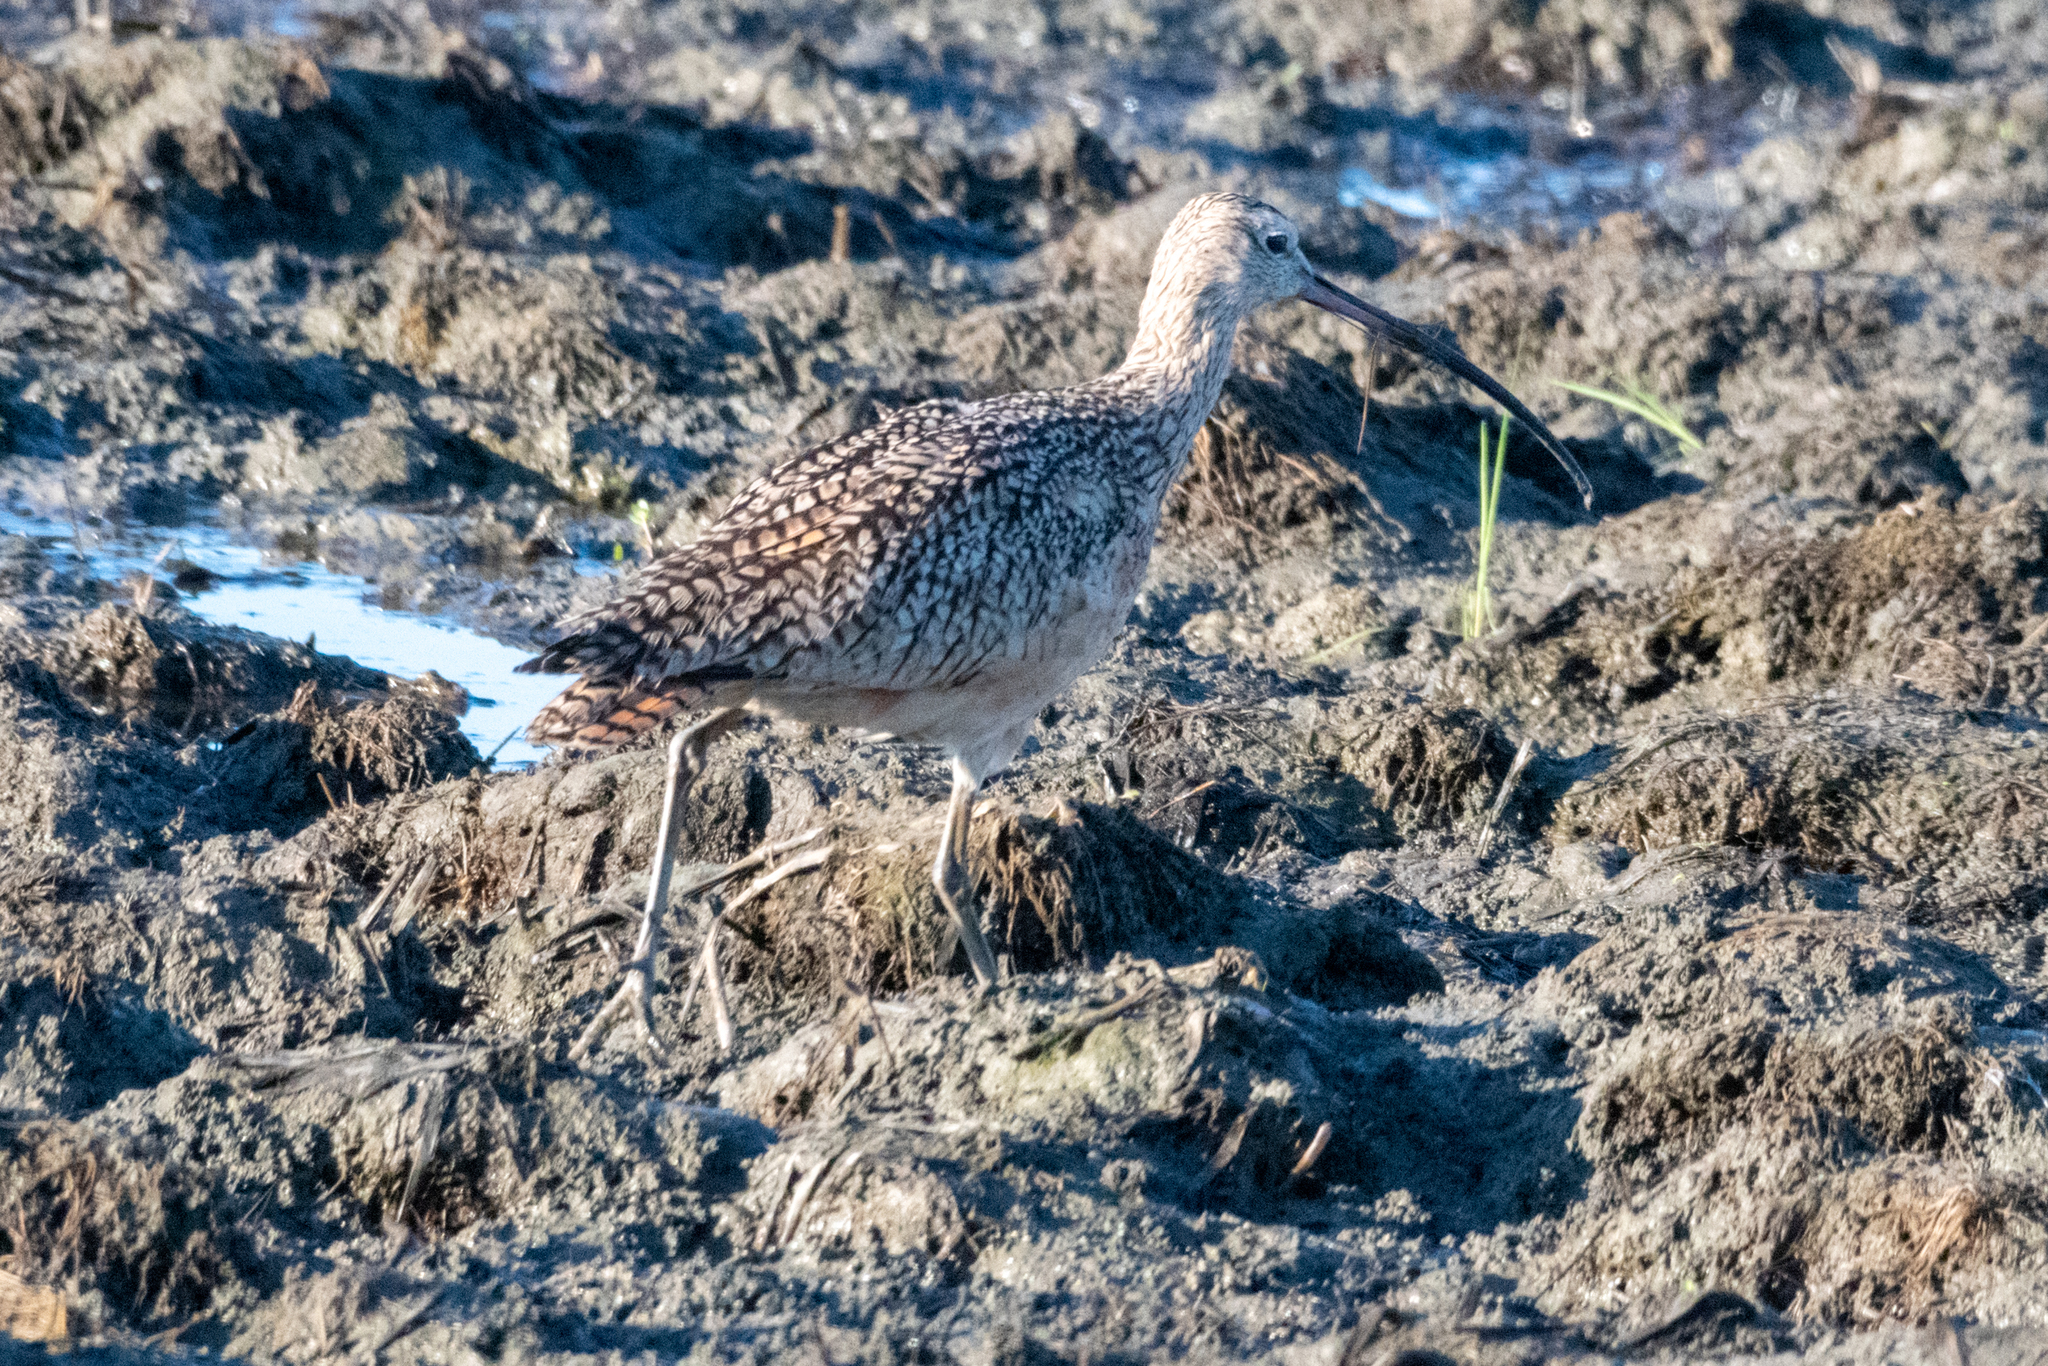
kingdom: Animalia
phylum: Chordata
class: Aves
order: Charadriiformes
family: Scolopacidae
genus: Numenius
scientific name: Numenius americanus
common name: Long-billed curlew
